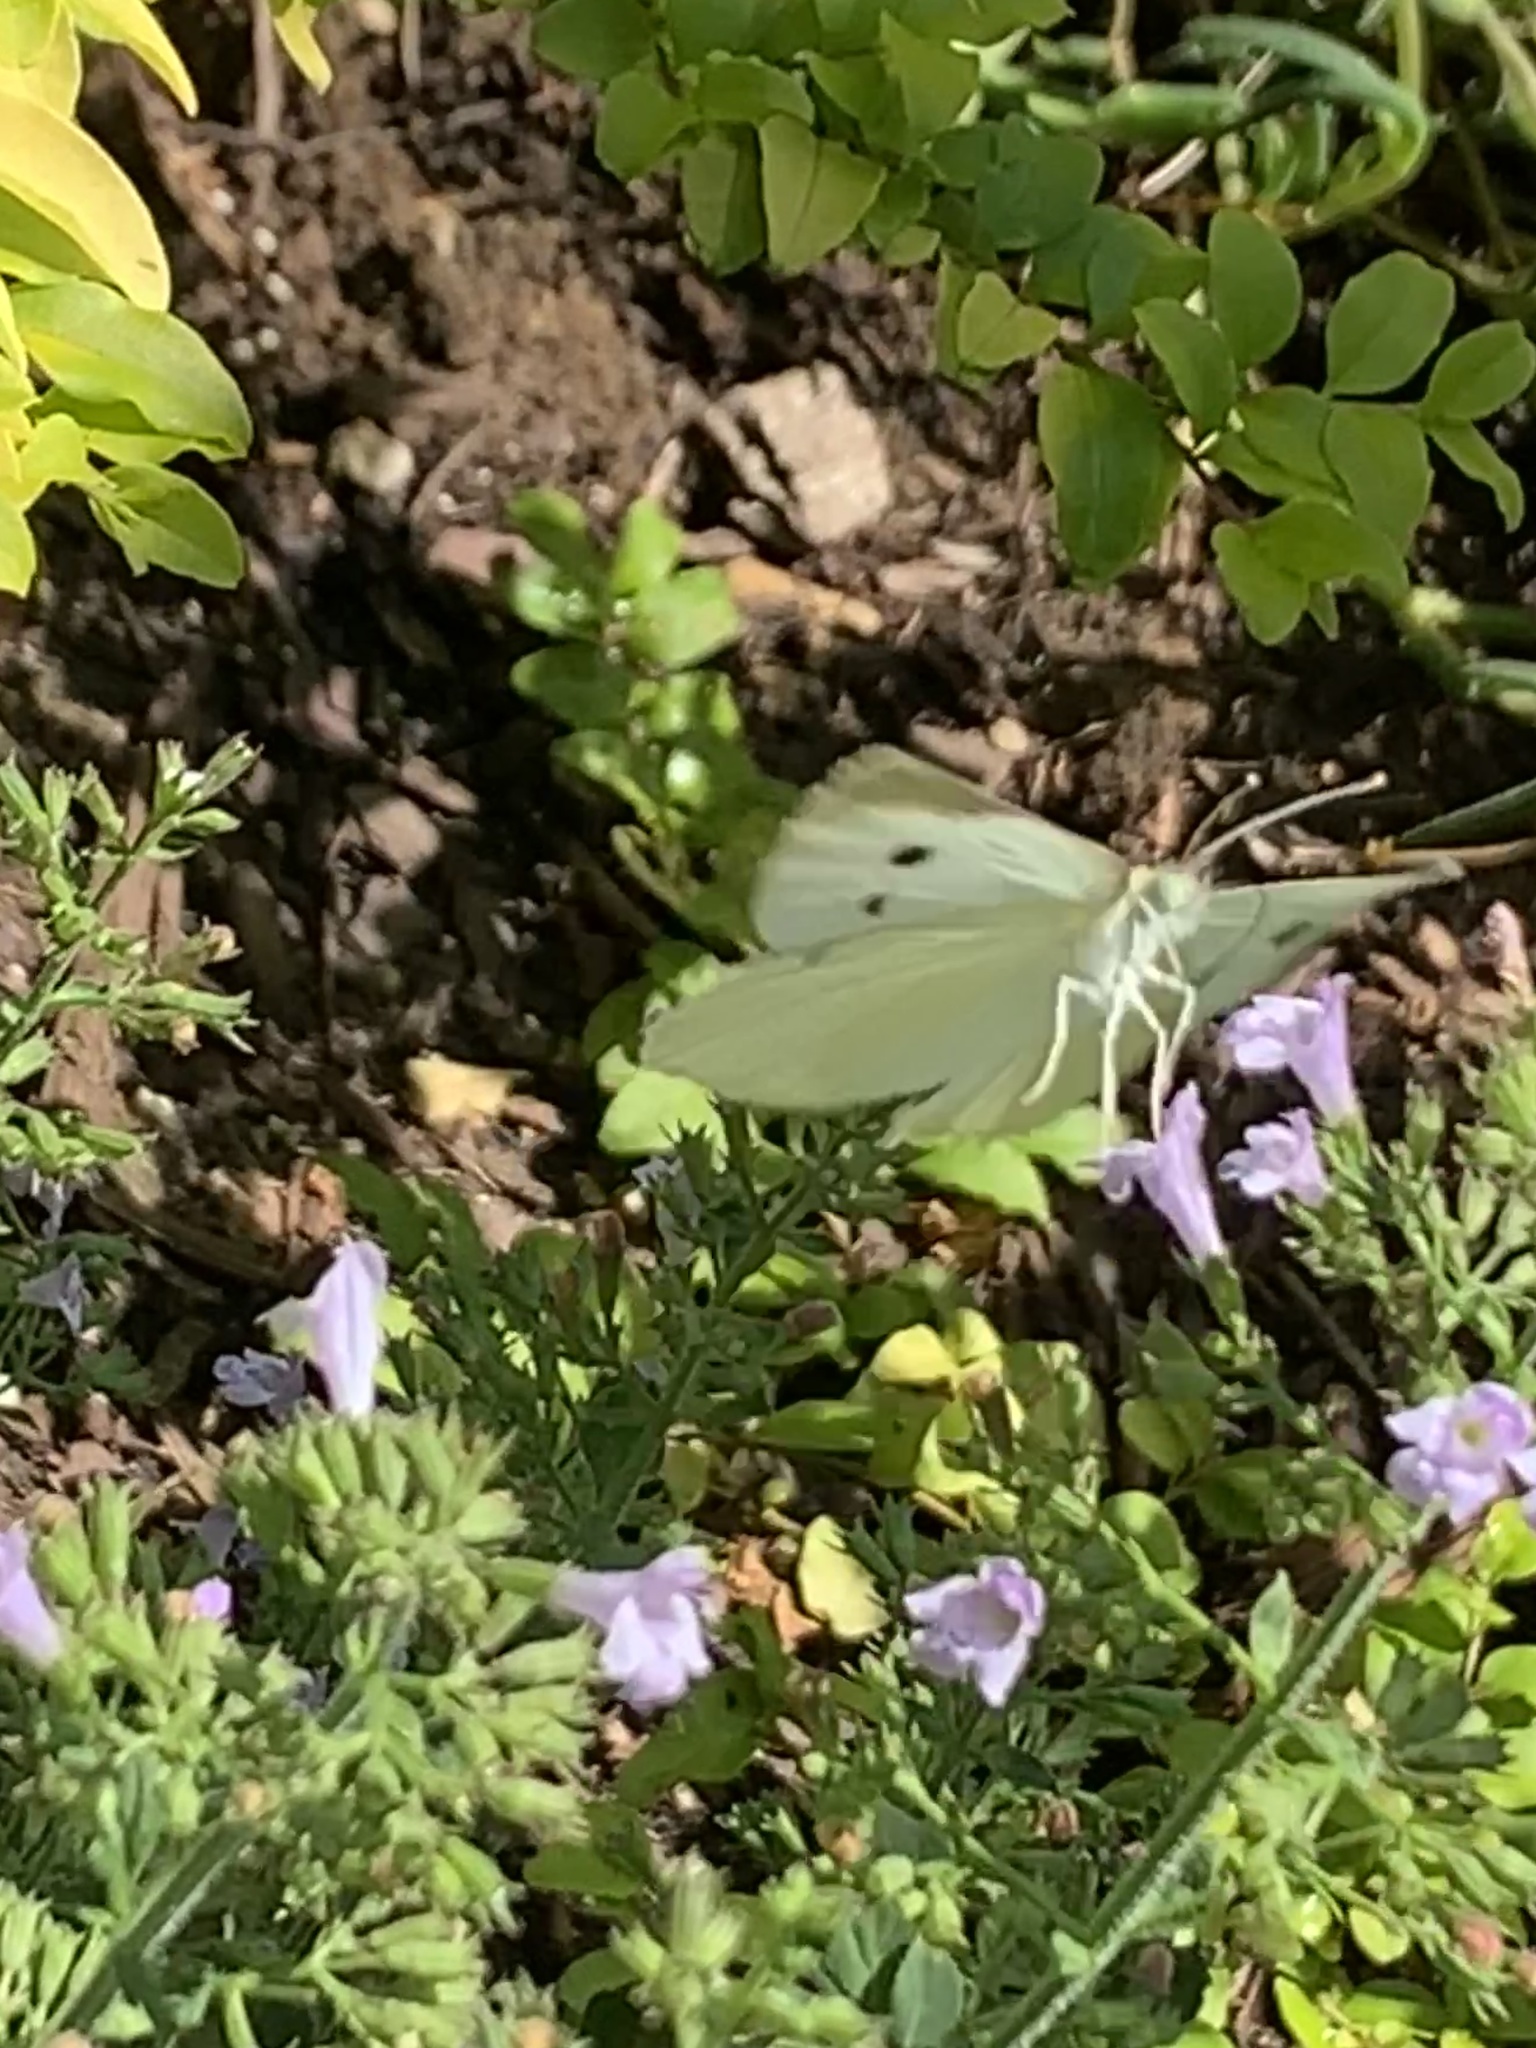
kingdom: Animalia
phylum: Arthropoda
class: Insecta
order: Lepidoptera
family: Pieridae
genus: Pieris
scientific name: Pieris rapae
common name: Small white
